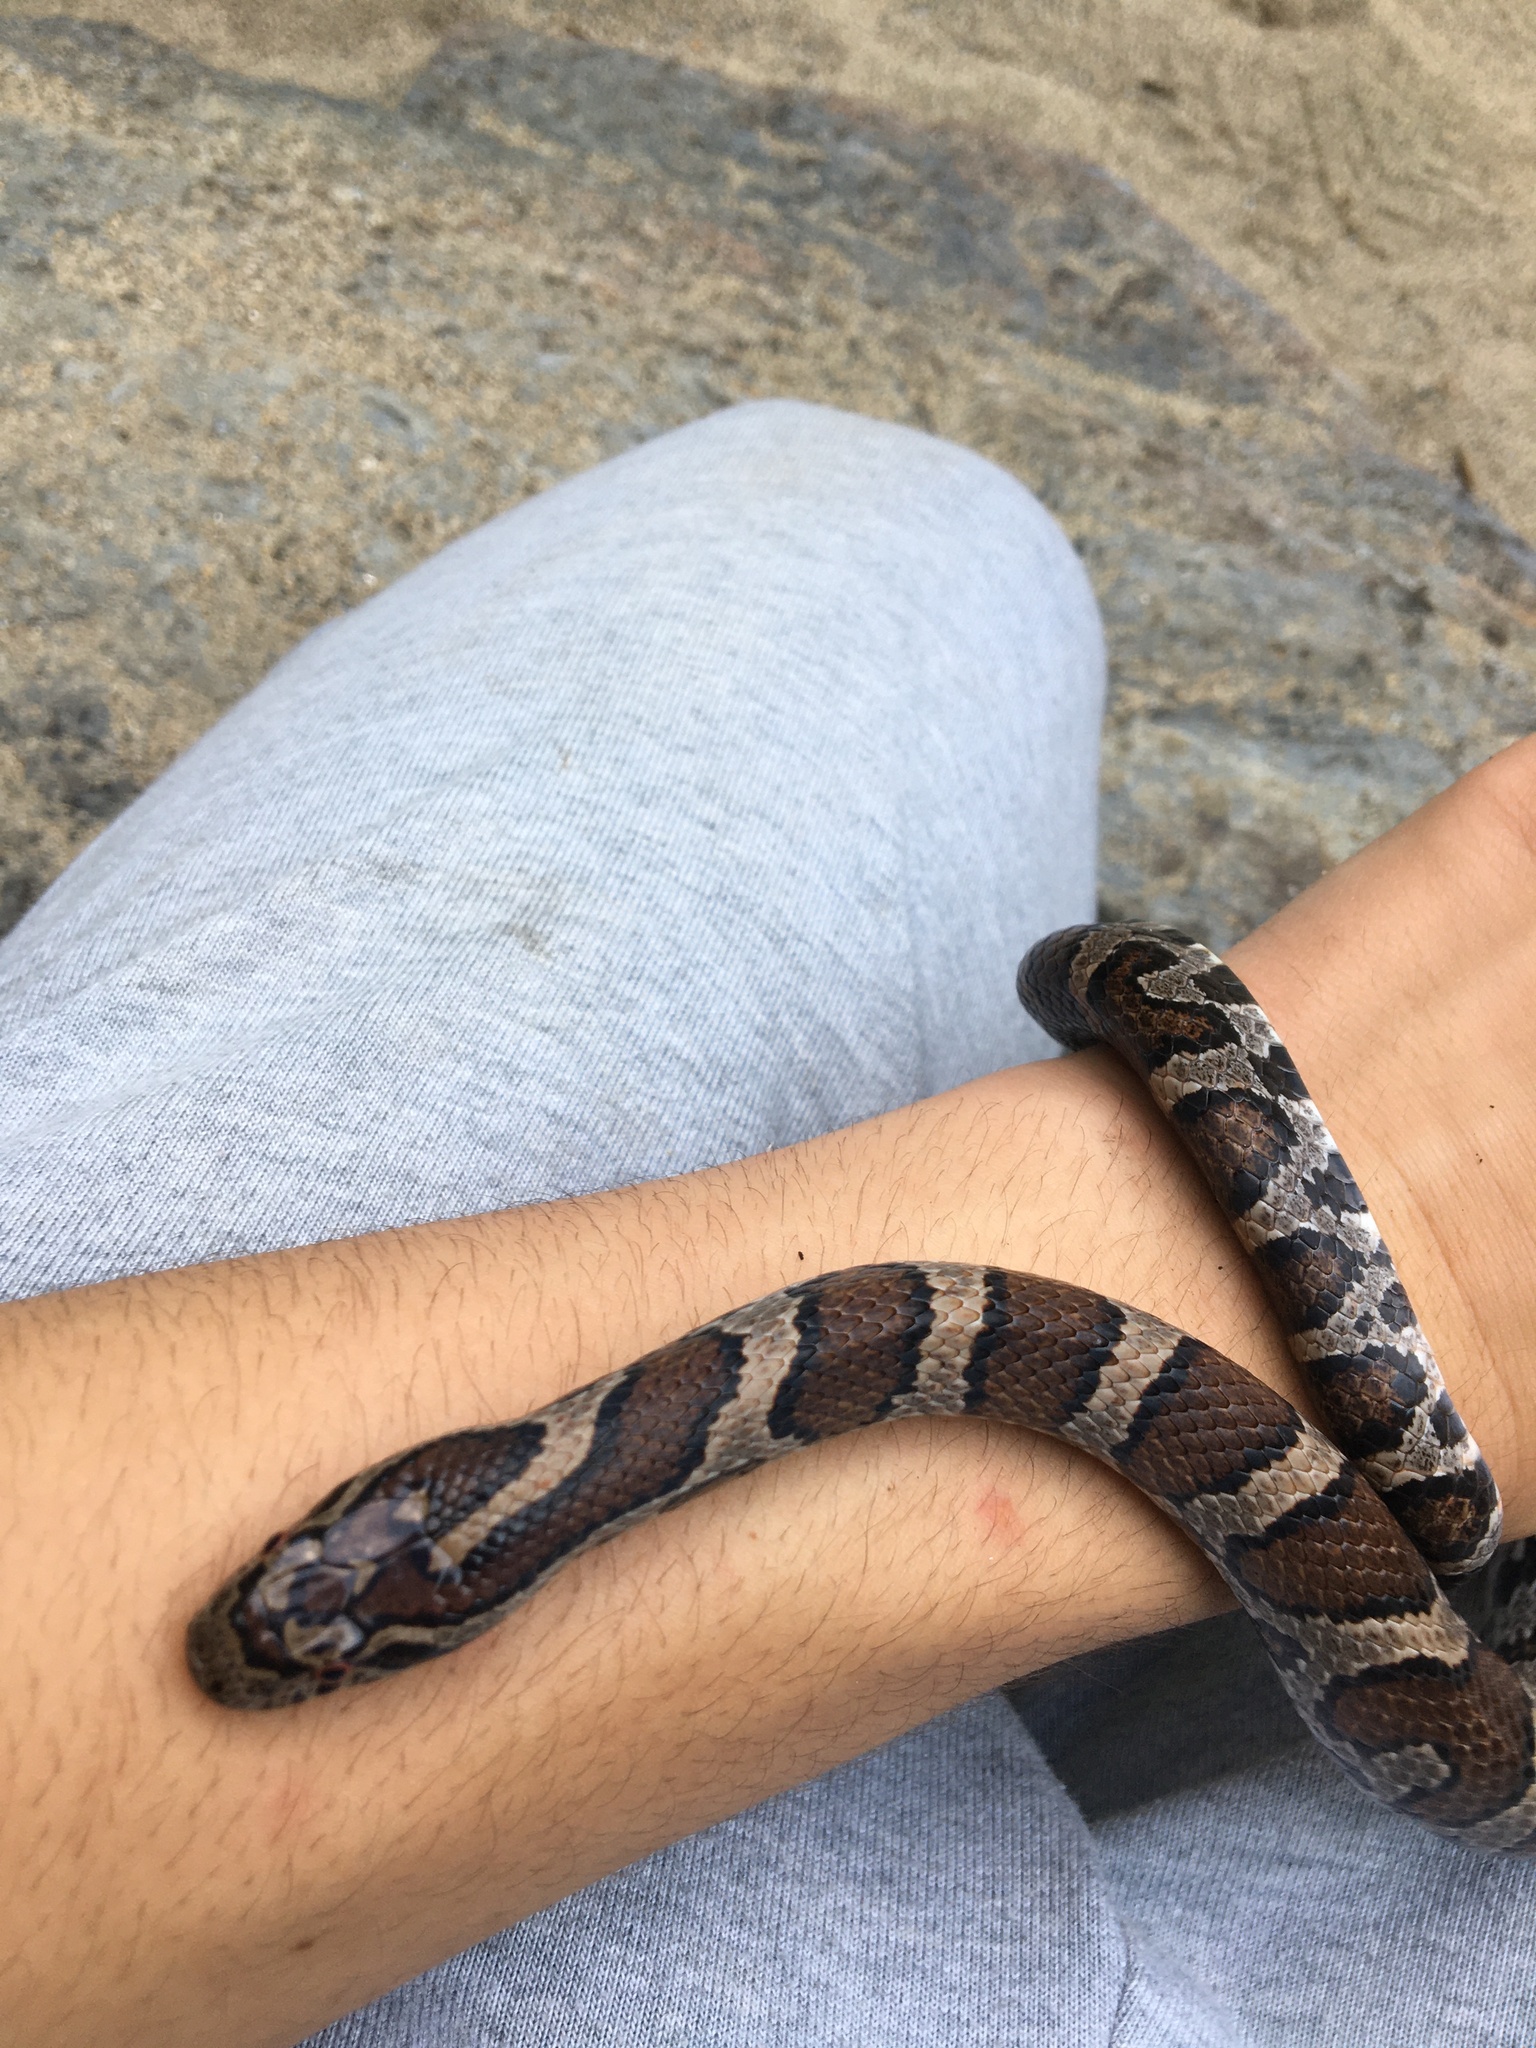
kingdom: Animalia
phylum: Chordata
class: Squamata
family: Colubridae
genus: Lampropeltis
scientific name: Lampropeltis triangulum
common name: Eastern milksnake
